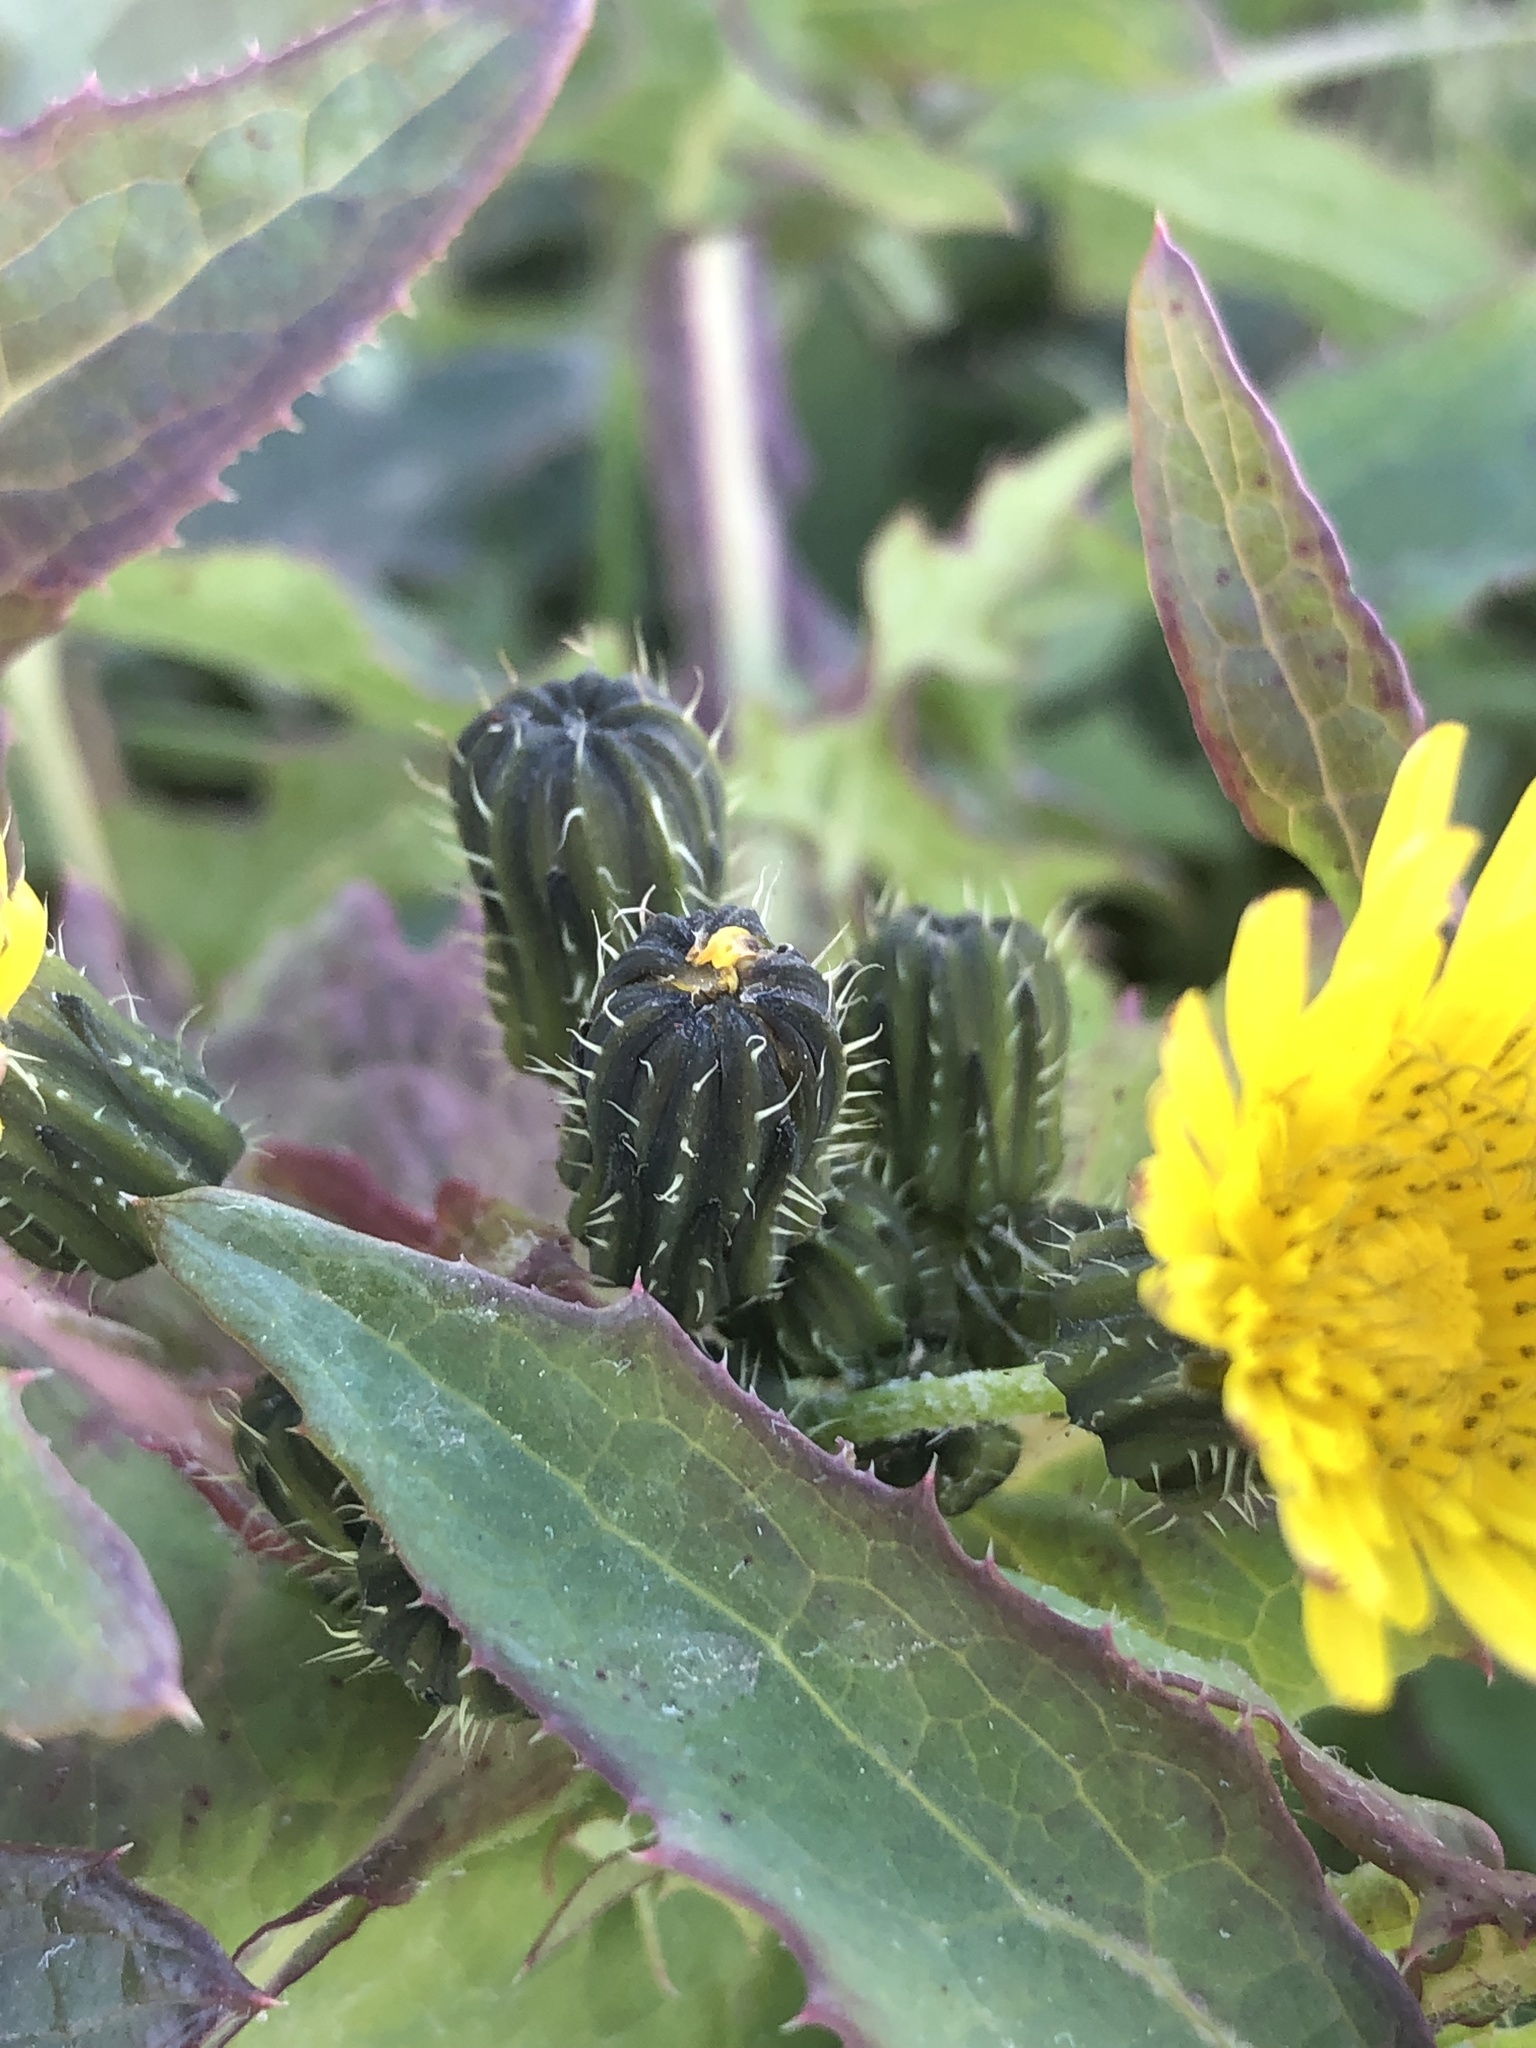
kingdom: Plantae
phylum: Tracheophyta
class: Magnoliopsida
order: Asterales
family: Asteraceae
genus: Sonchus
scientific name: Sonchus oleraceus
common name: Common sowthistle
